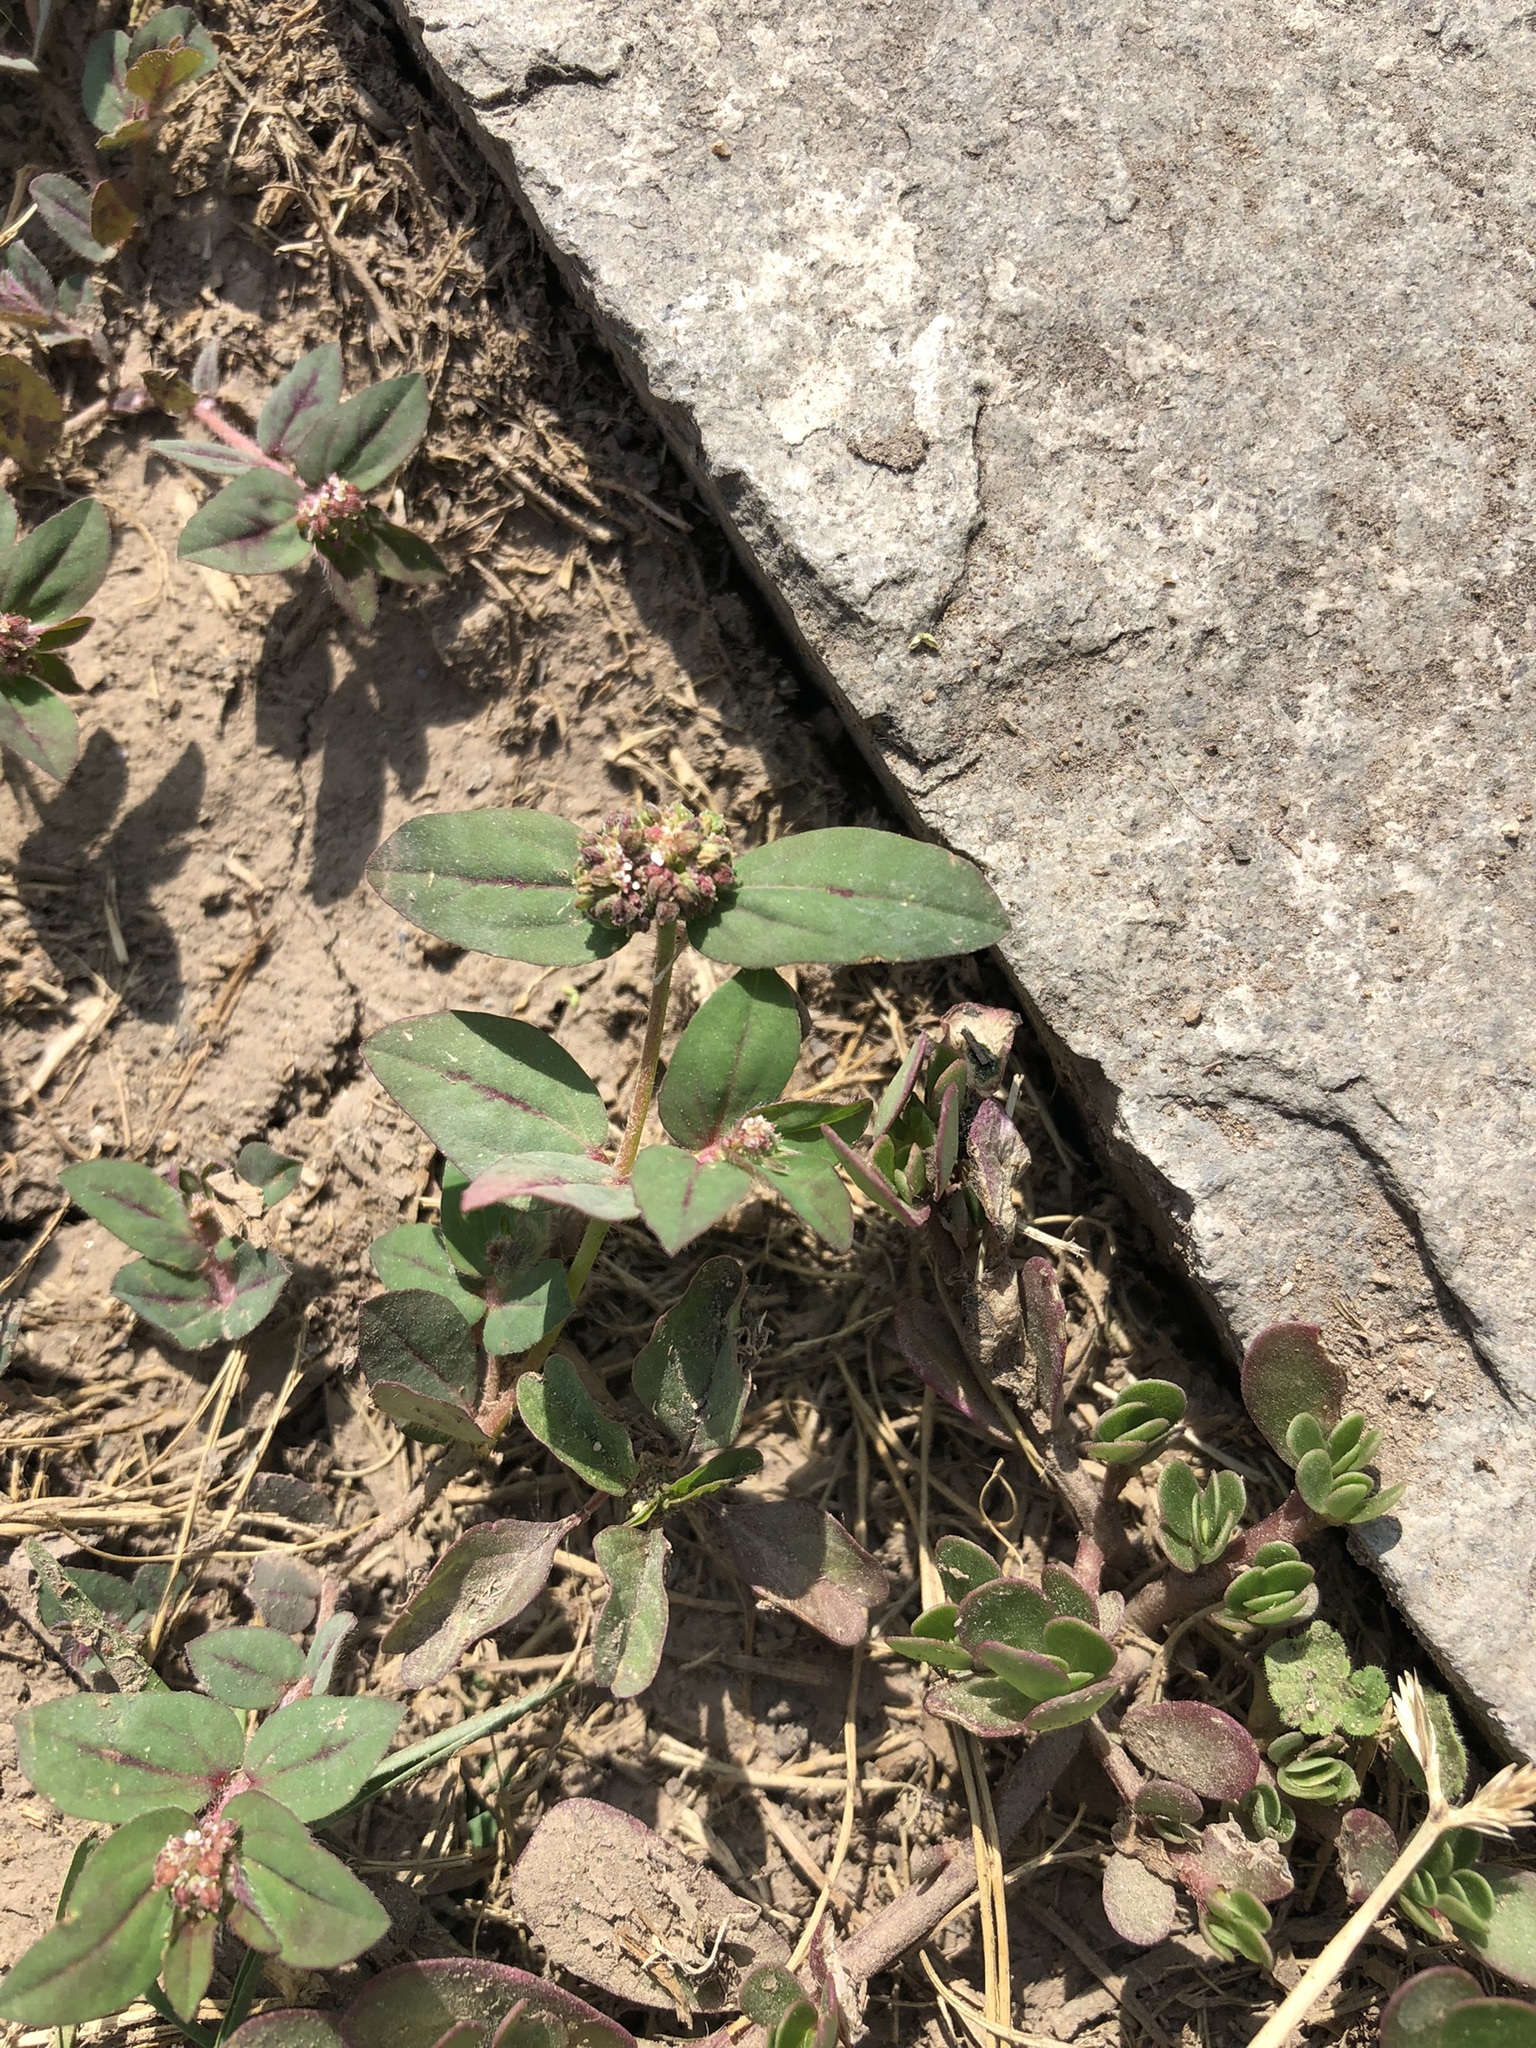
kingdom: Plantae
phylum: Tracheophyta
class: Magnoliopsida
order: Malpighiales
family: Euphorbiaceae
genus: Euphorbia
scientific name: Euphorbia ophthalmica
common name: Florida hammock sandmat
